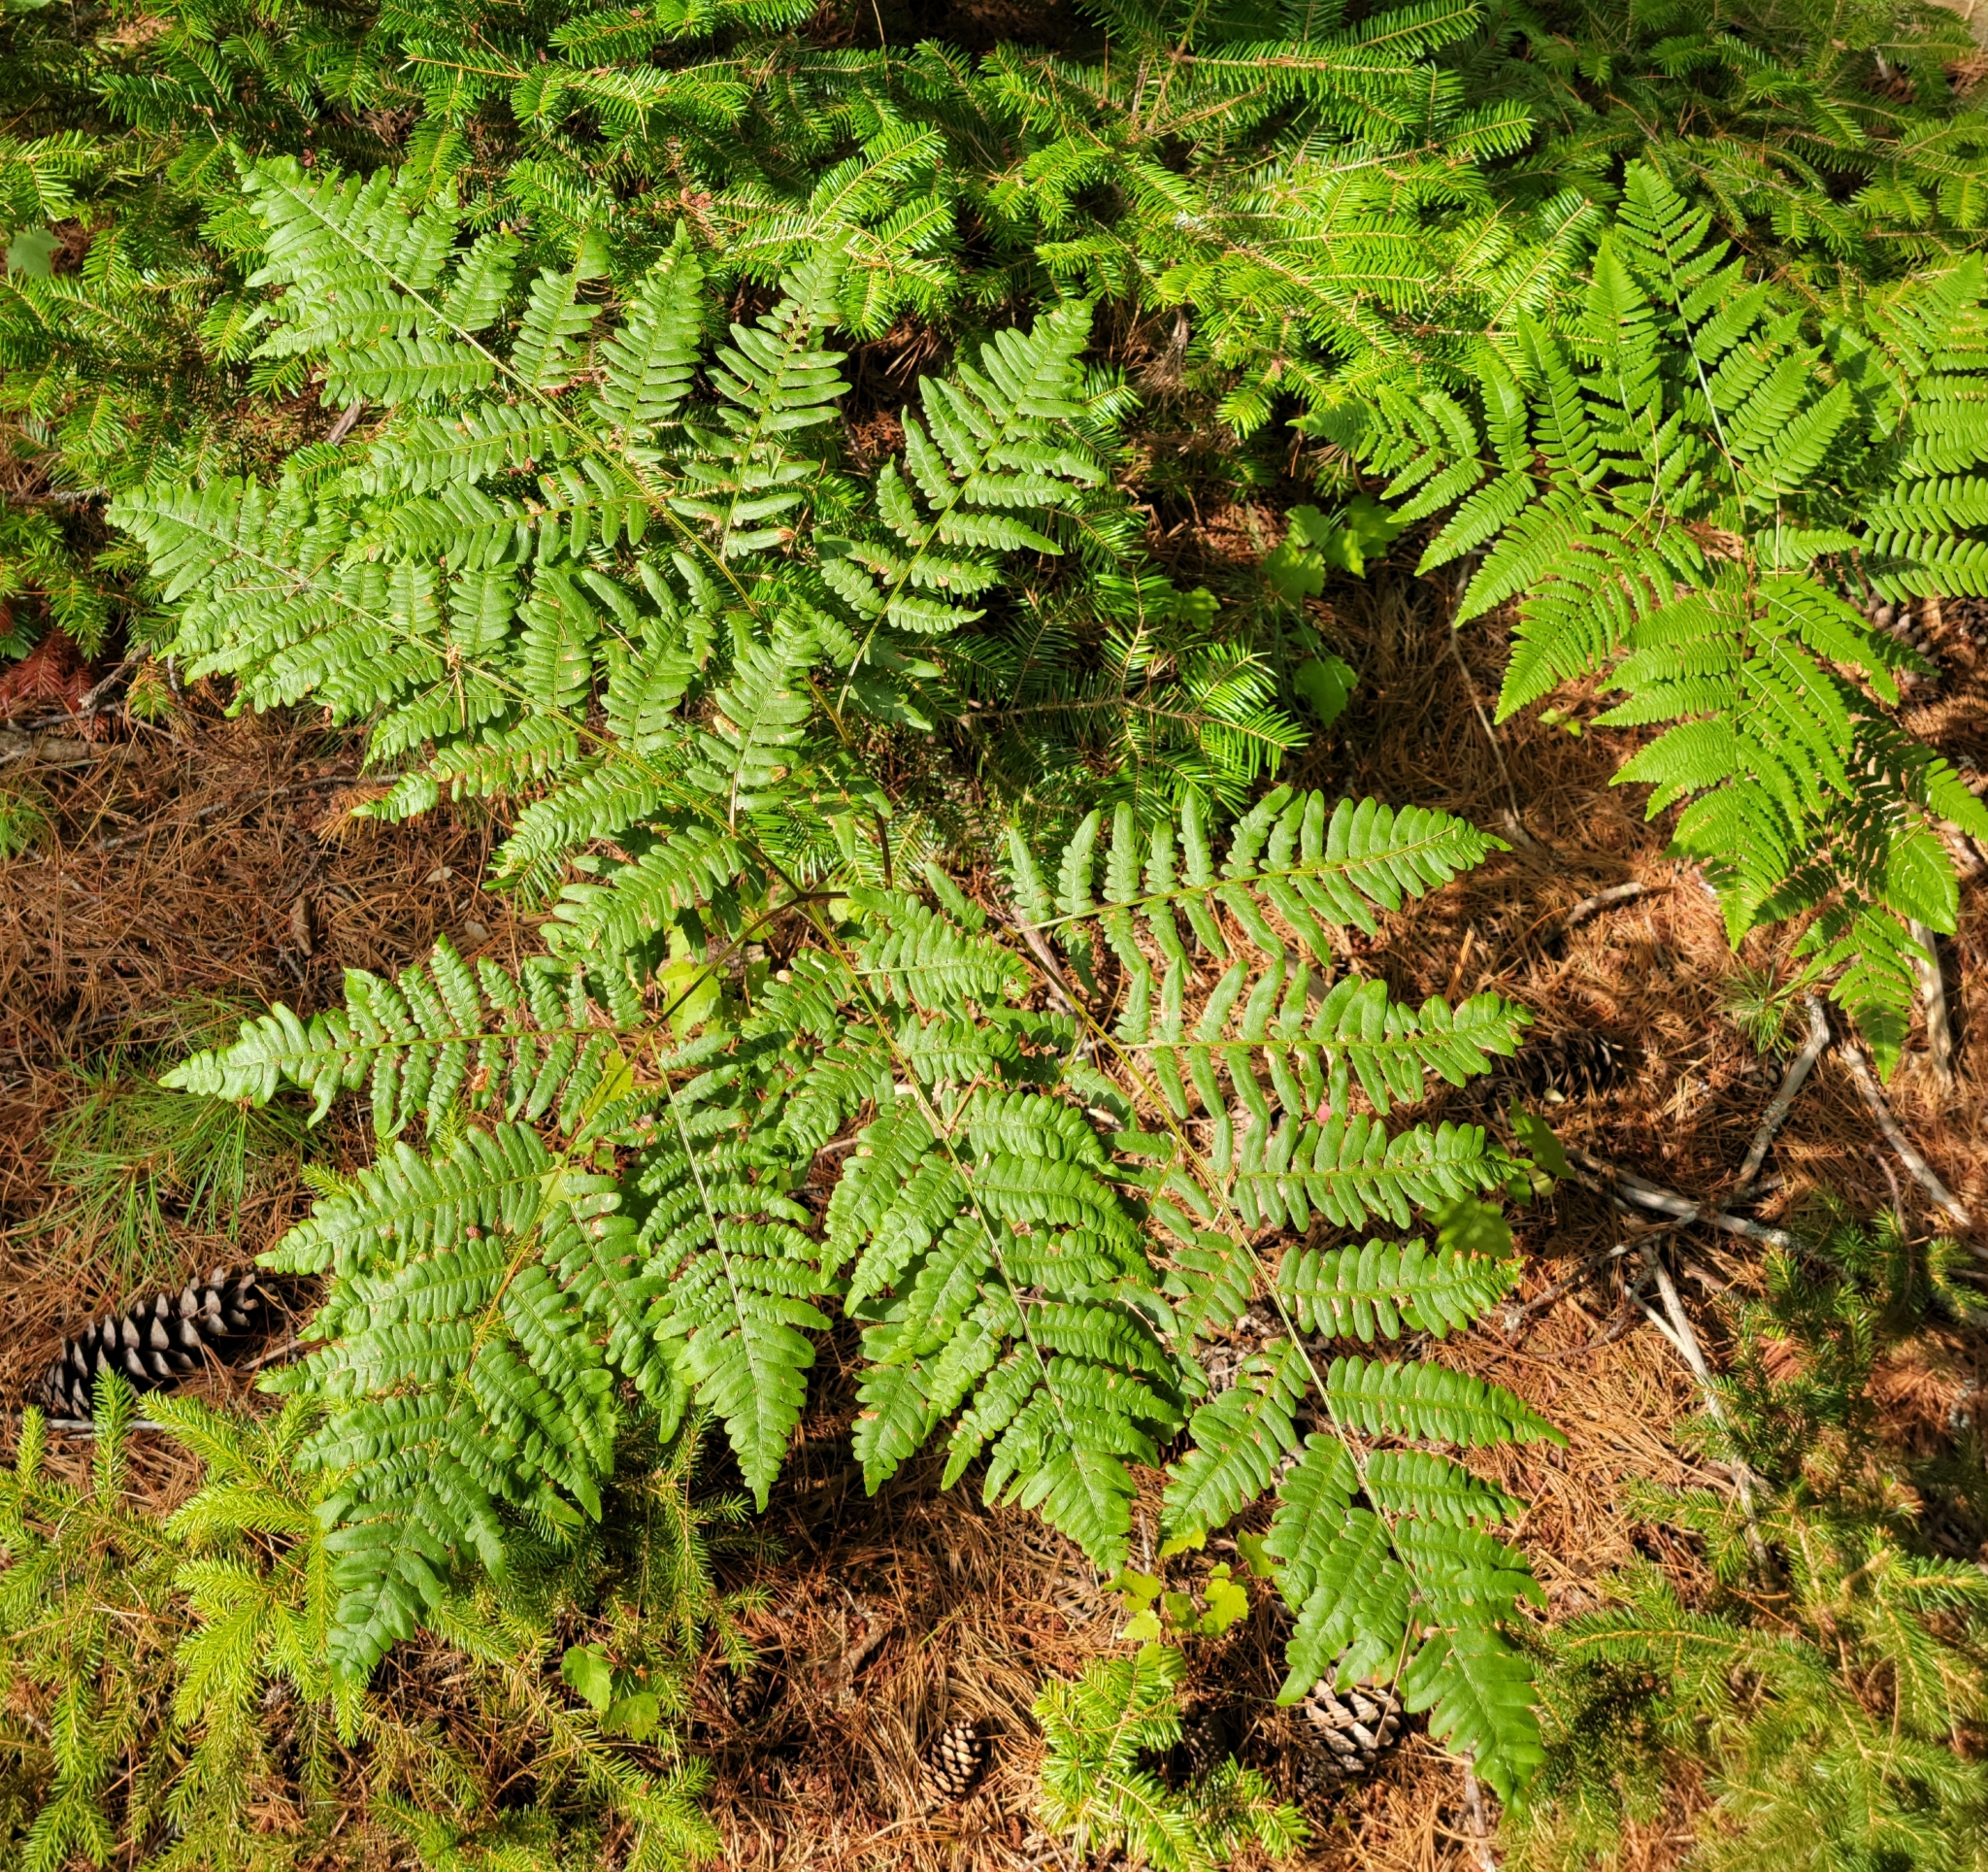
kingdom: Plantae
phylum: Tracheophyta
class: Polypodiopsida
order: Polypodiales
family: Dennstaedtiaceae
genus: Pteridium
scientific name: Pteridium aquilinum
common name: Bracken
